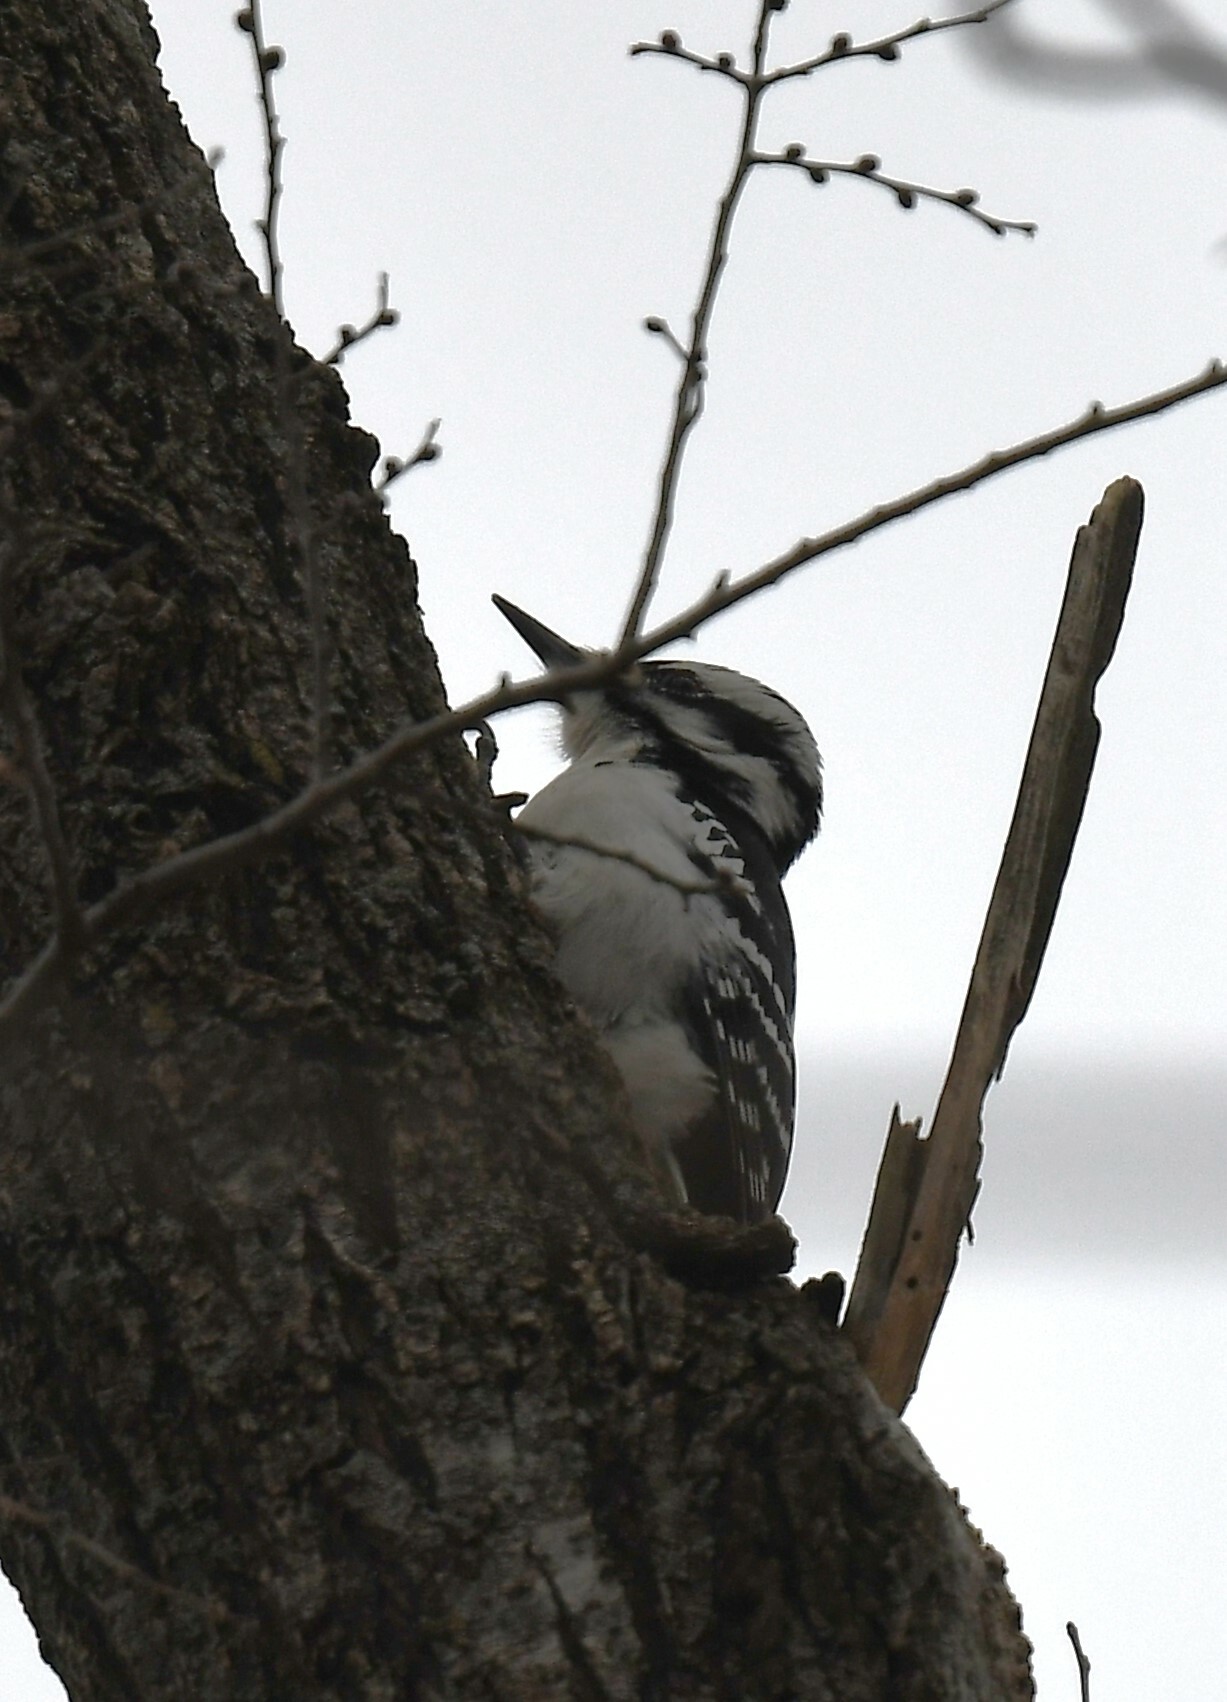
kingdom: Animalia
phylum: Chordata
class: Aves
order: Piciformes
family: Picidae
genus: Leuconotopicus
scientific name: Leuconotopicus villosus
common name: Hairy woodpecker
